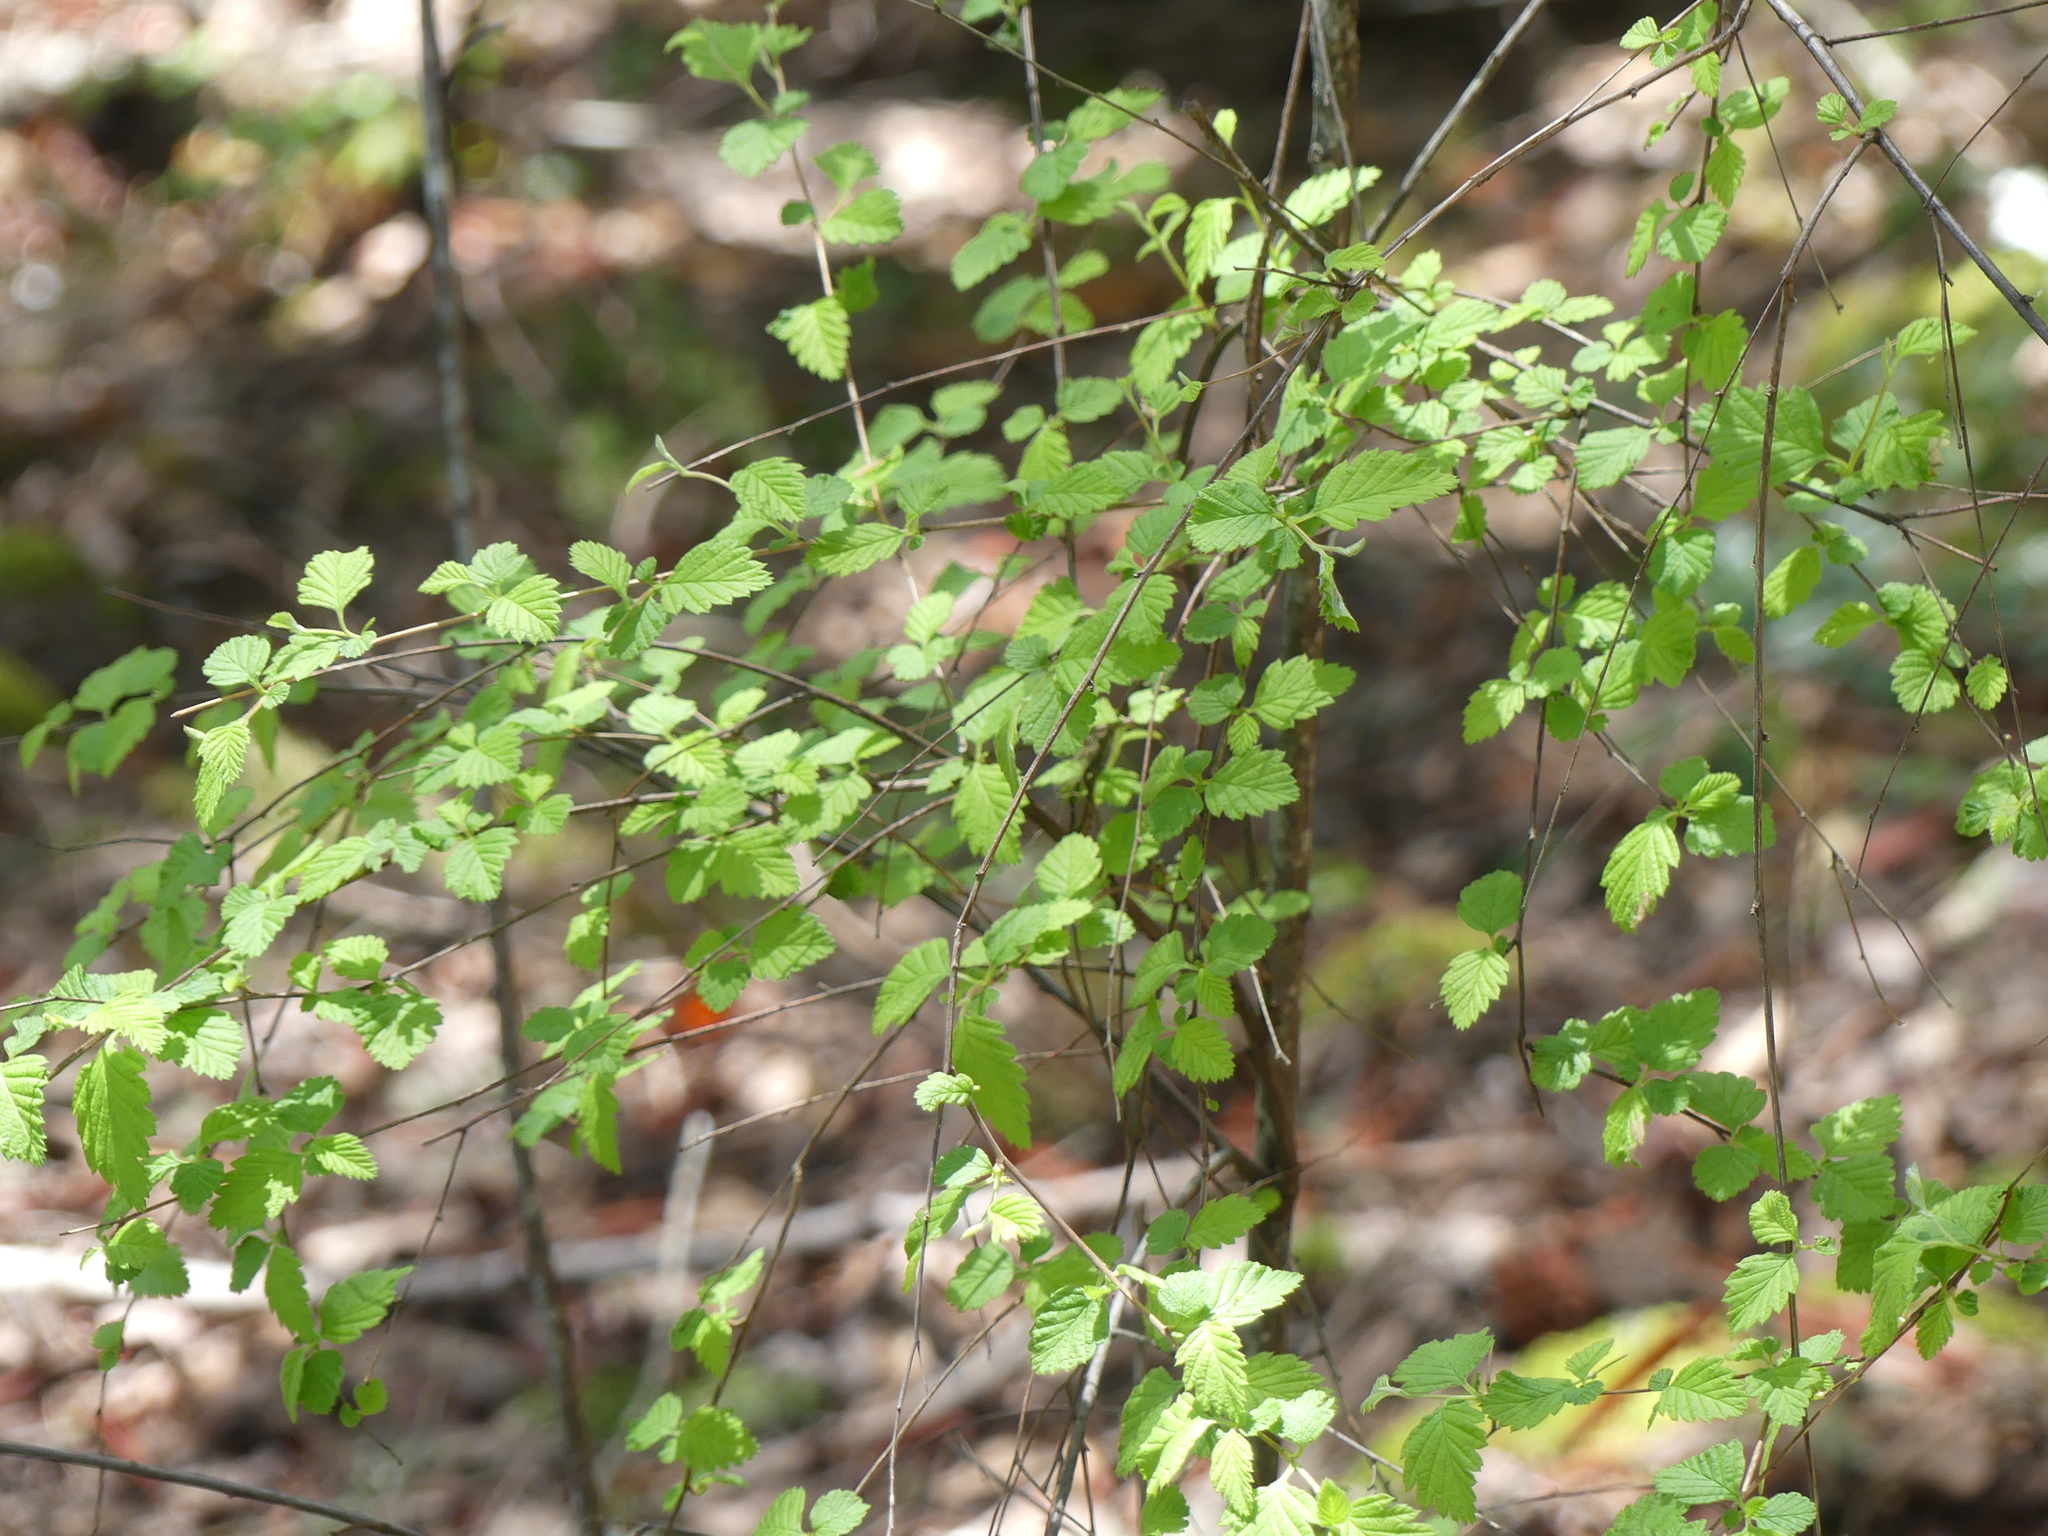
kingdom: Plantae
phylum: Tracheophyta
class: Magnoliopsida
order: Rosales
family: Rosaceae
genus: Holodiscus
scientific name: Holodiscus discolor
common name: Oceanspray
